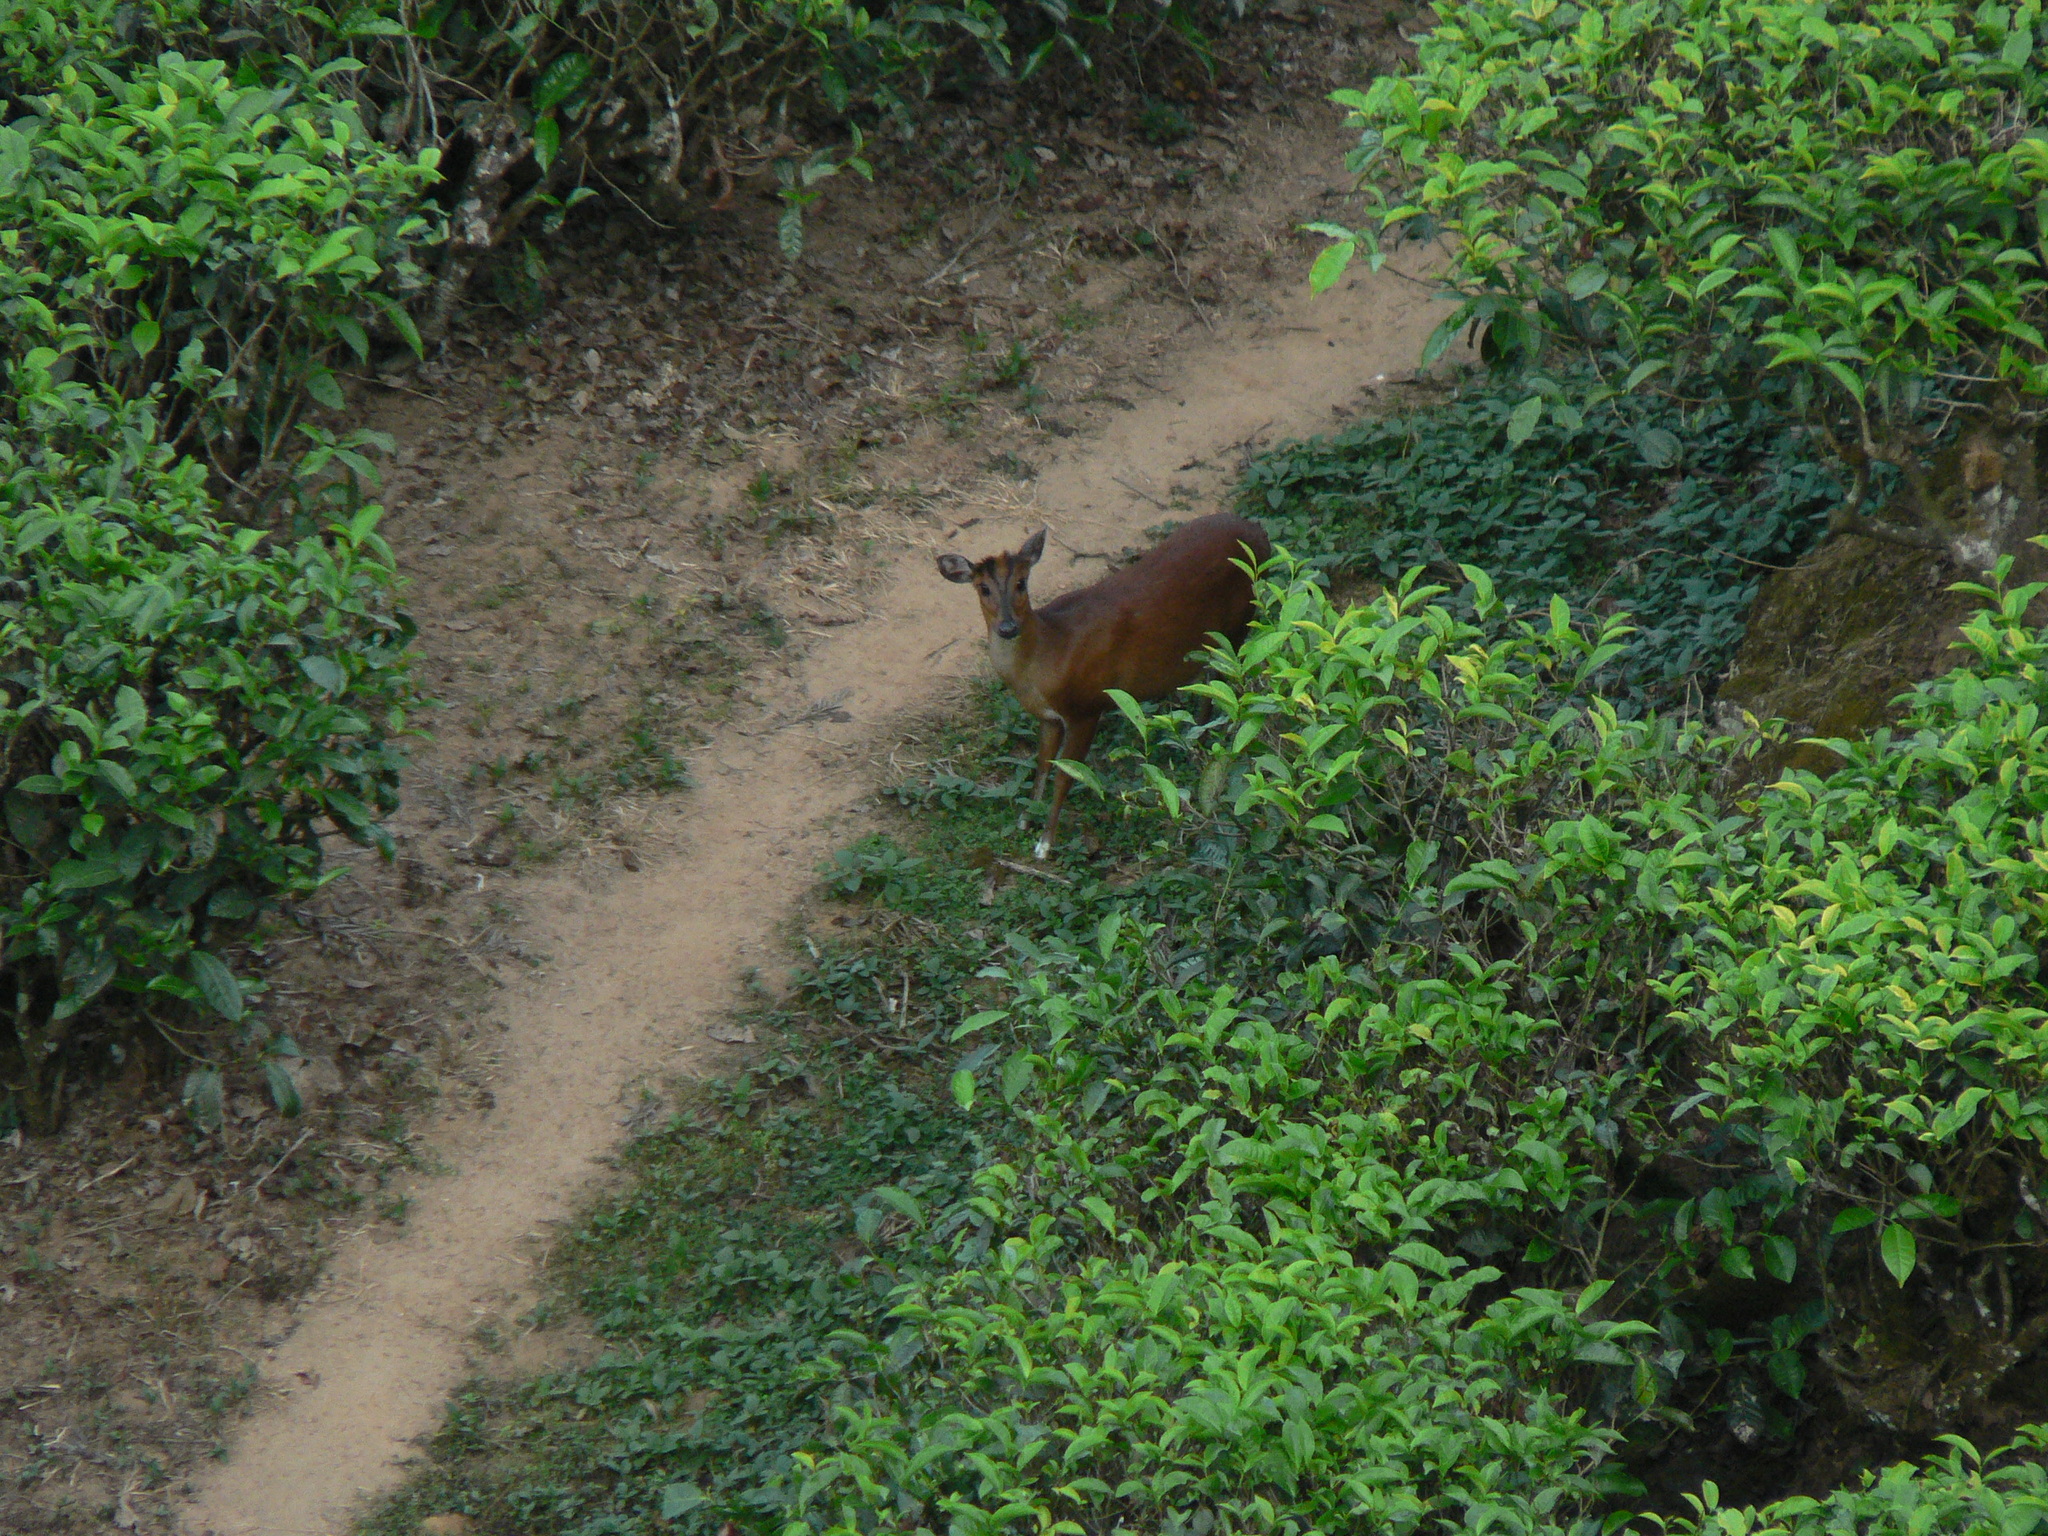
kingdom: Animalia
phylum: Chordata
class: Mammalia
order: Artiodactyla
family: Cervidae
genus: Muntiacus
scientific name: Muntiacus muntjak
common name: Indian muntjac
